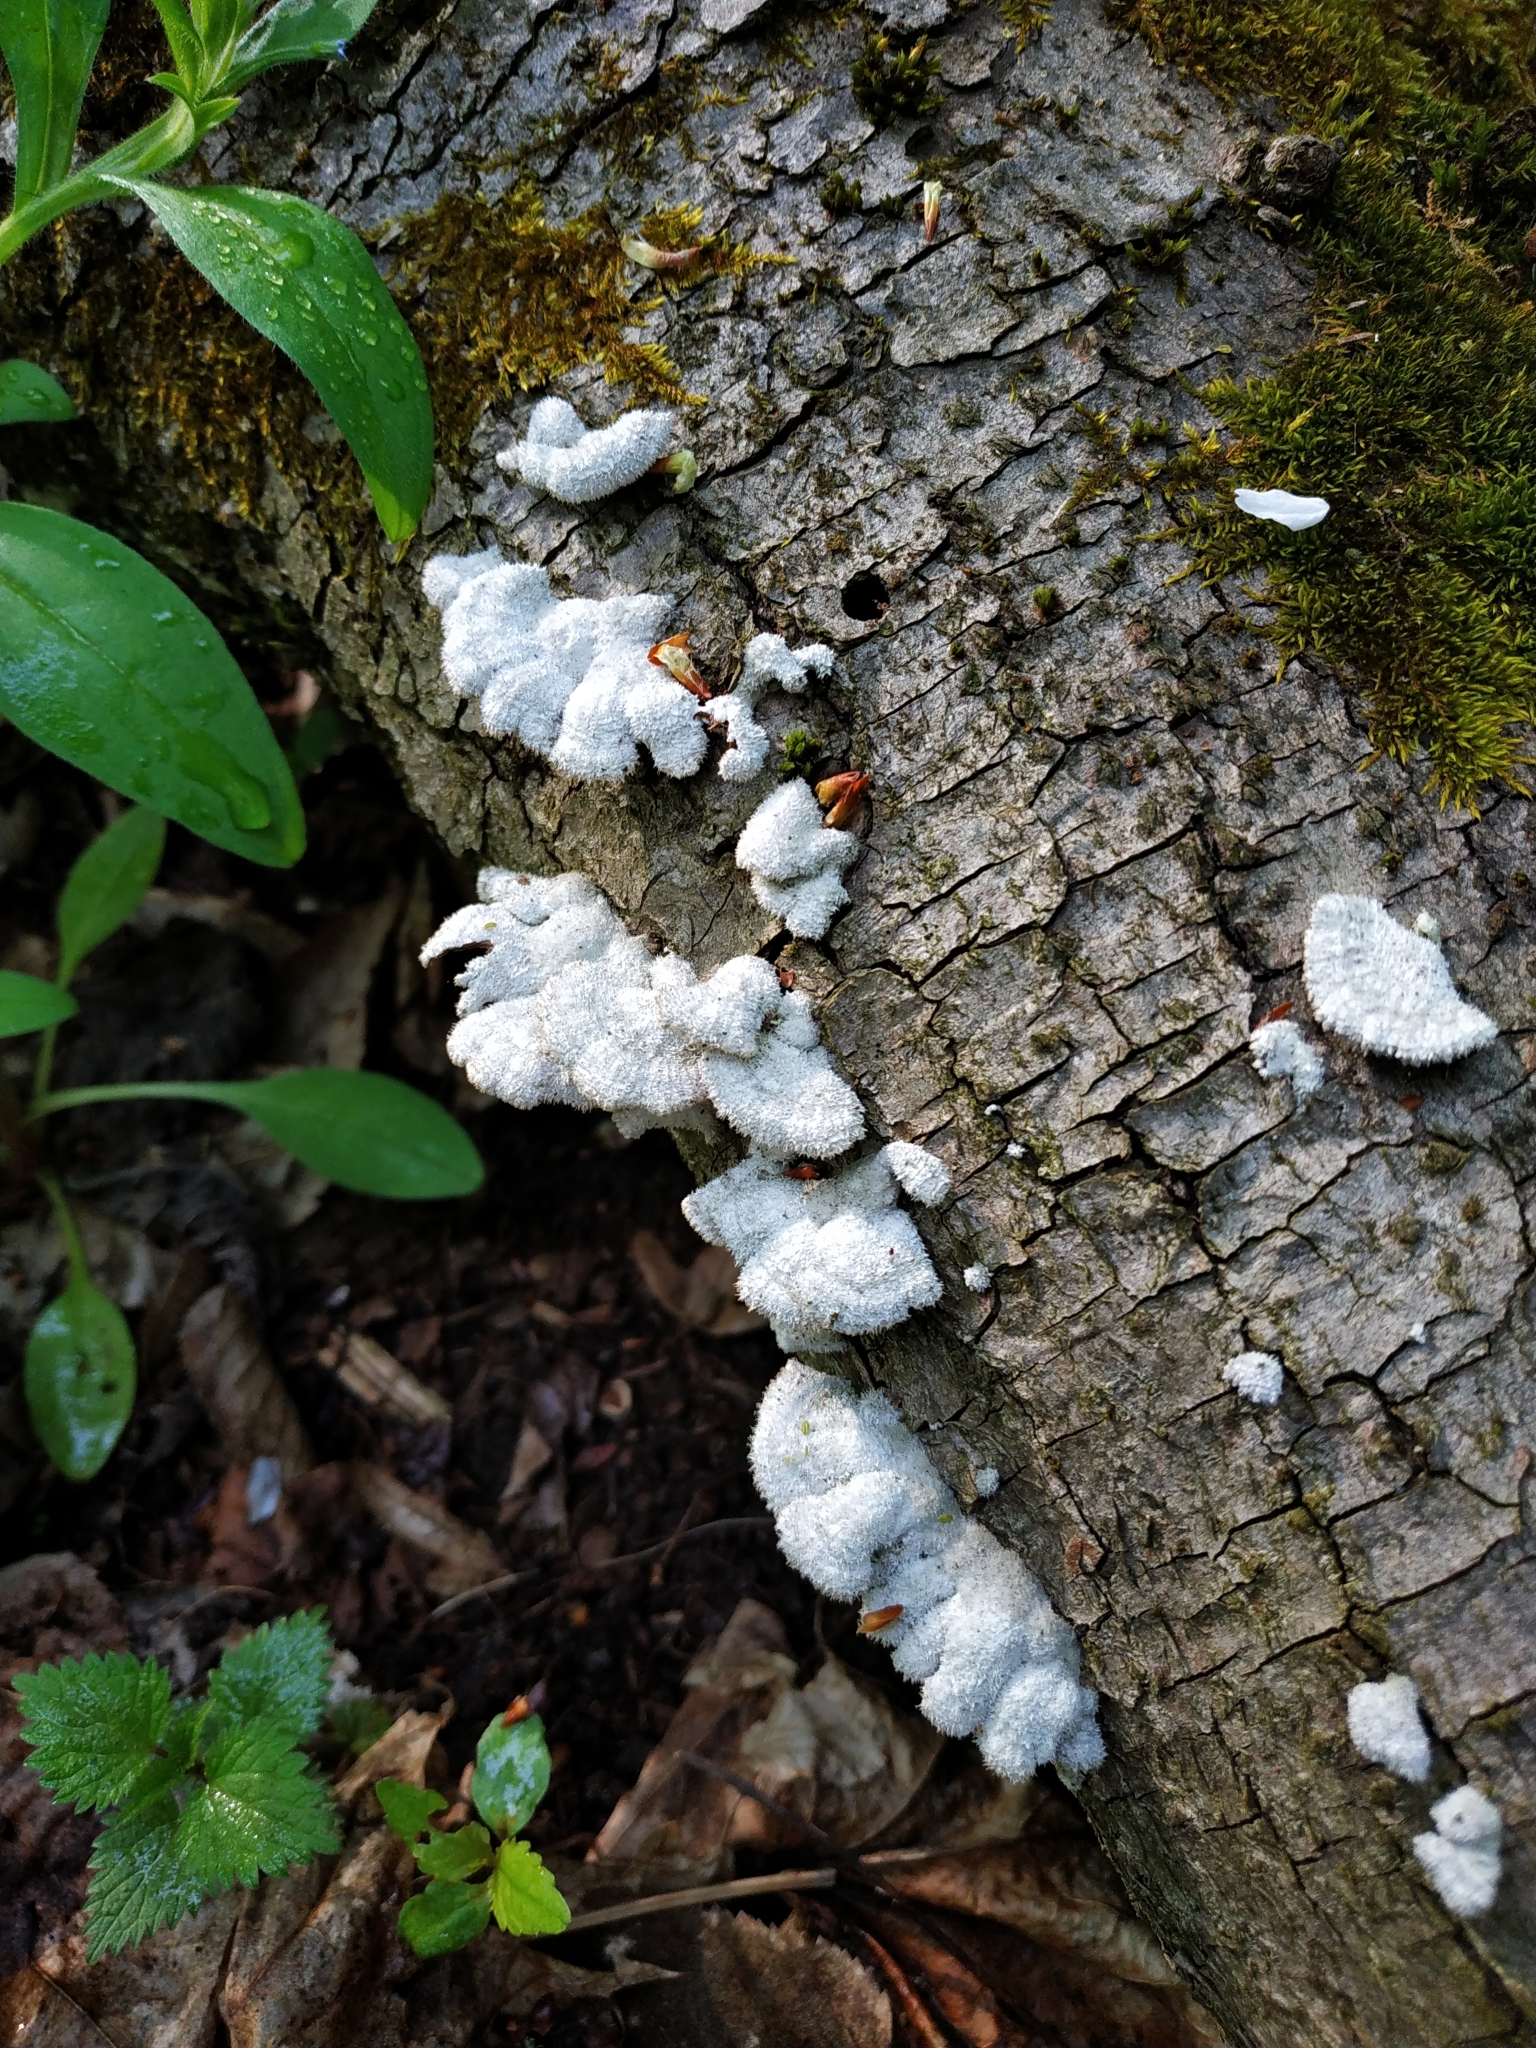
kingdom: Fungi
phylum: Basidiomycota
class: Agaricomycetes
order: Agaricales
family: Schizophyllaceae
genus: Schizophyllum
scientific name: Schizophyllum commune
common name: Common porecrust
